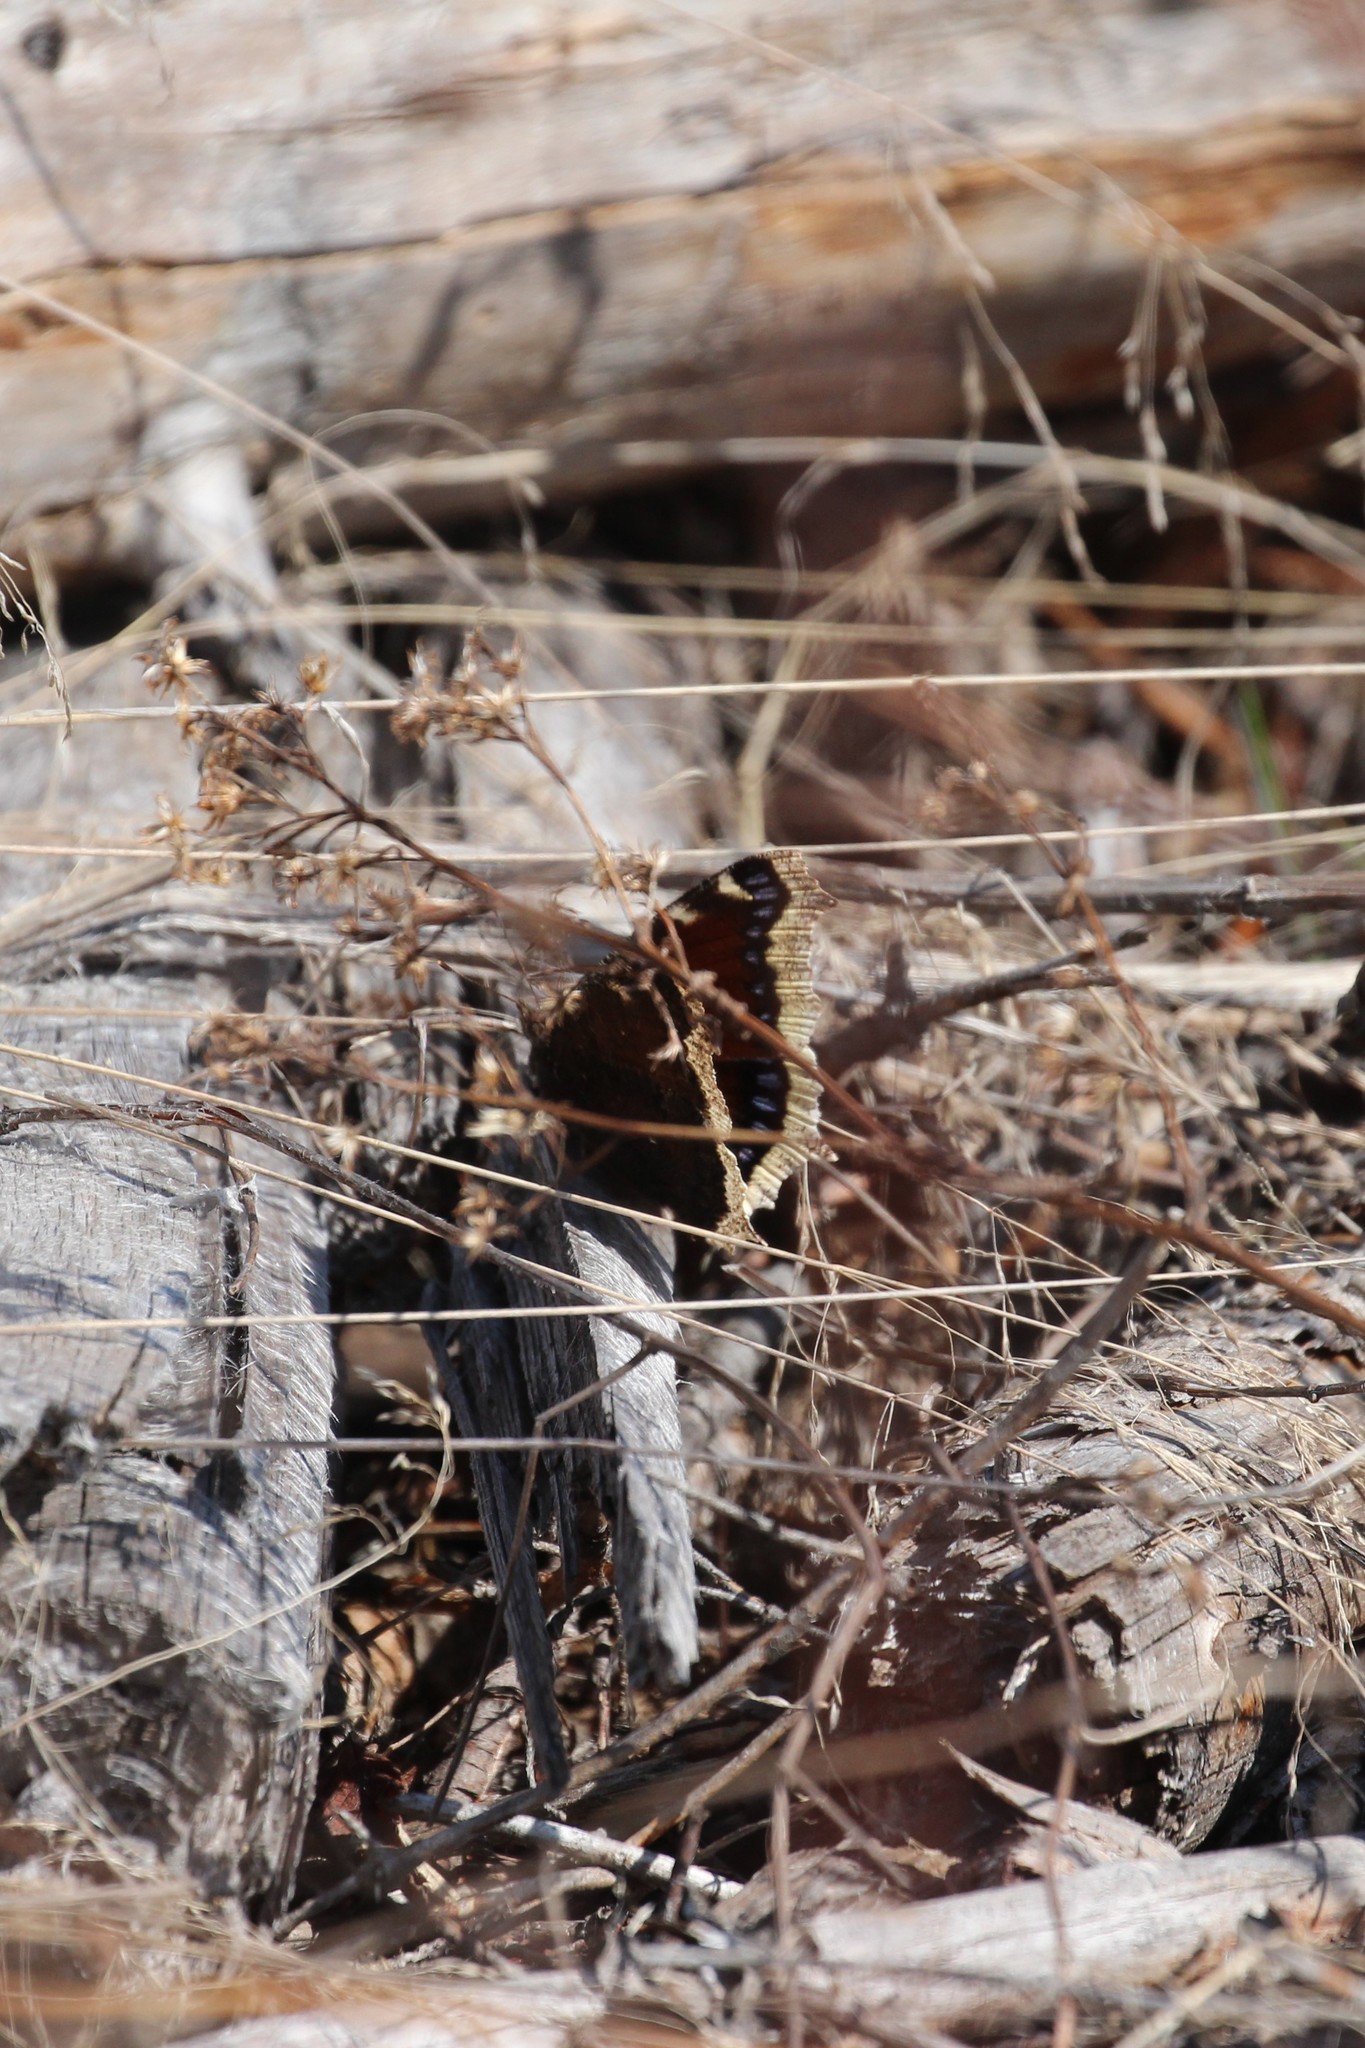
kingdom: Animalia
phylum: Arthropoda
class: Insecta
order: Lepidoptera
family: Nymphalidae
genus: Nymphalis
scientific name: Nymphalis antiopa
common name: Camberwell beauty
